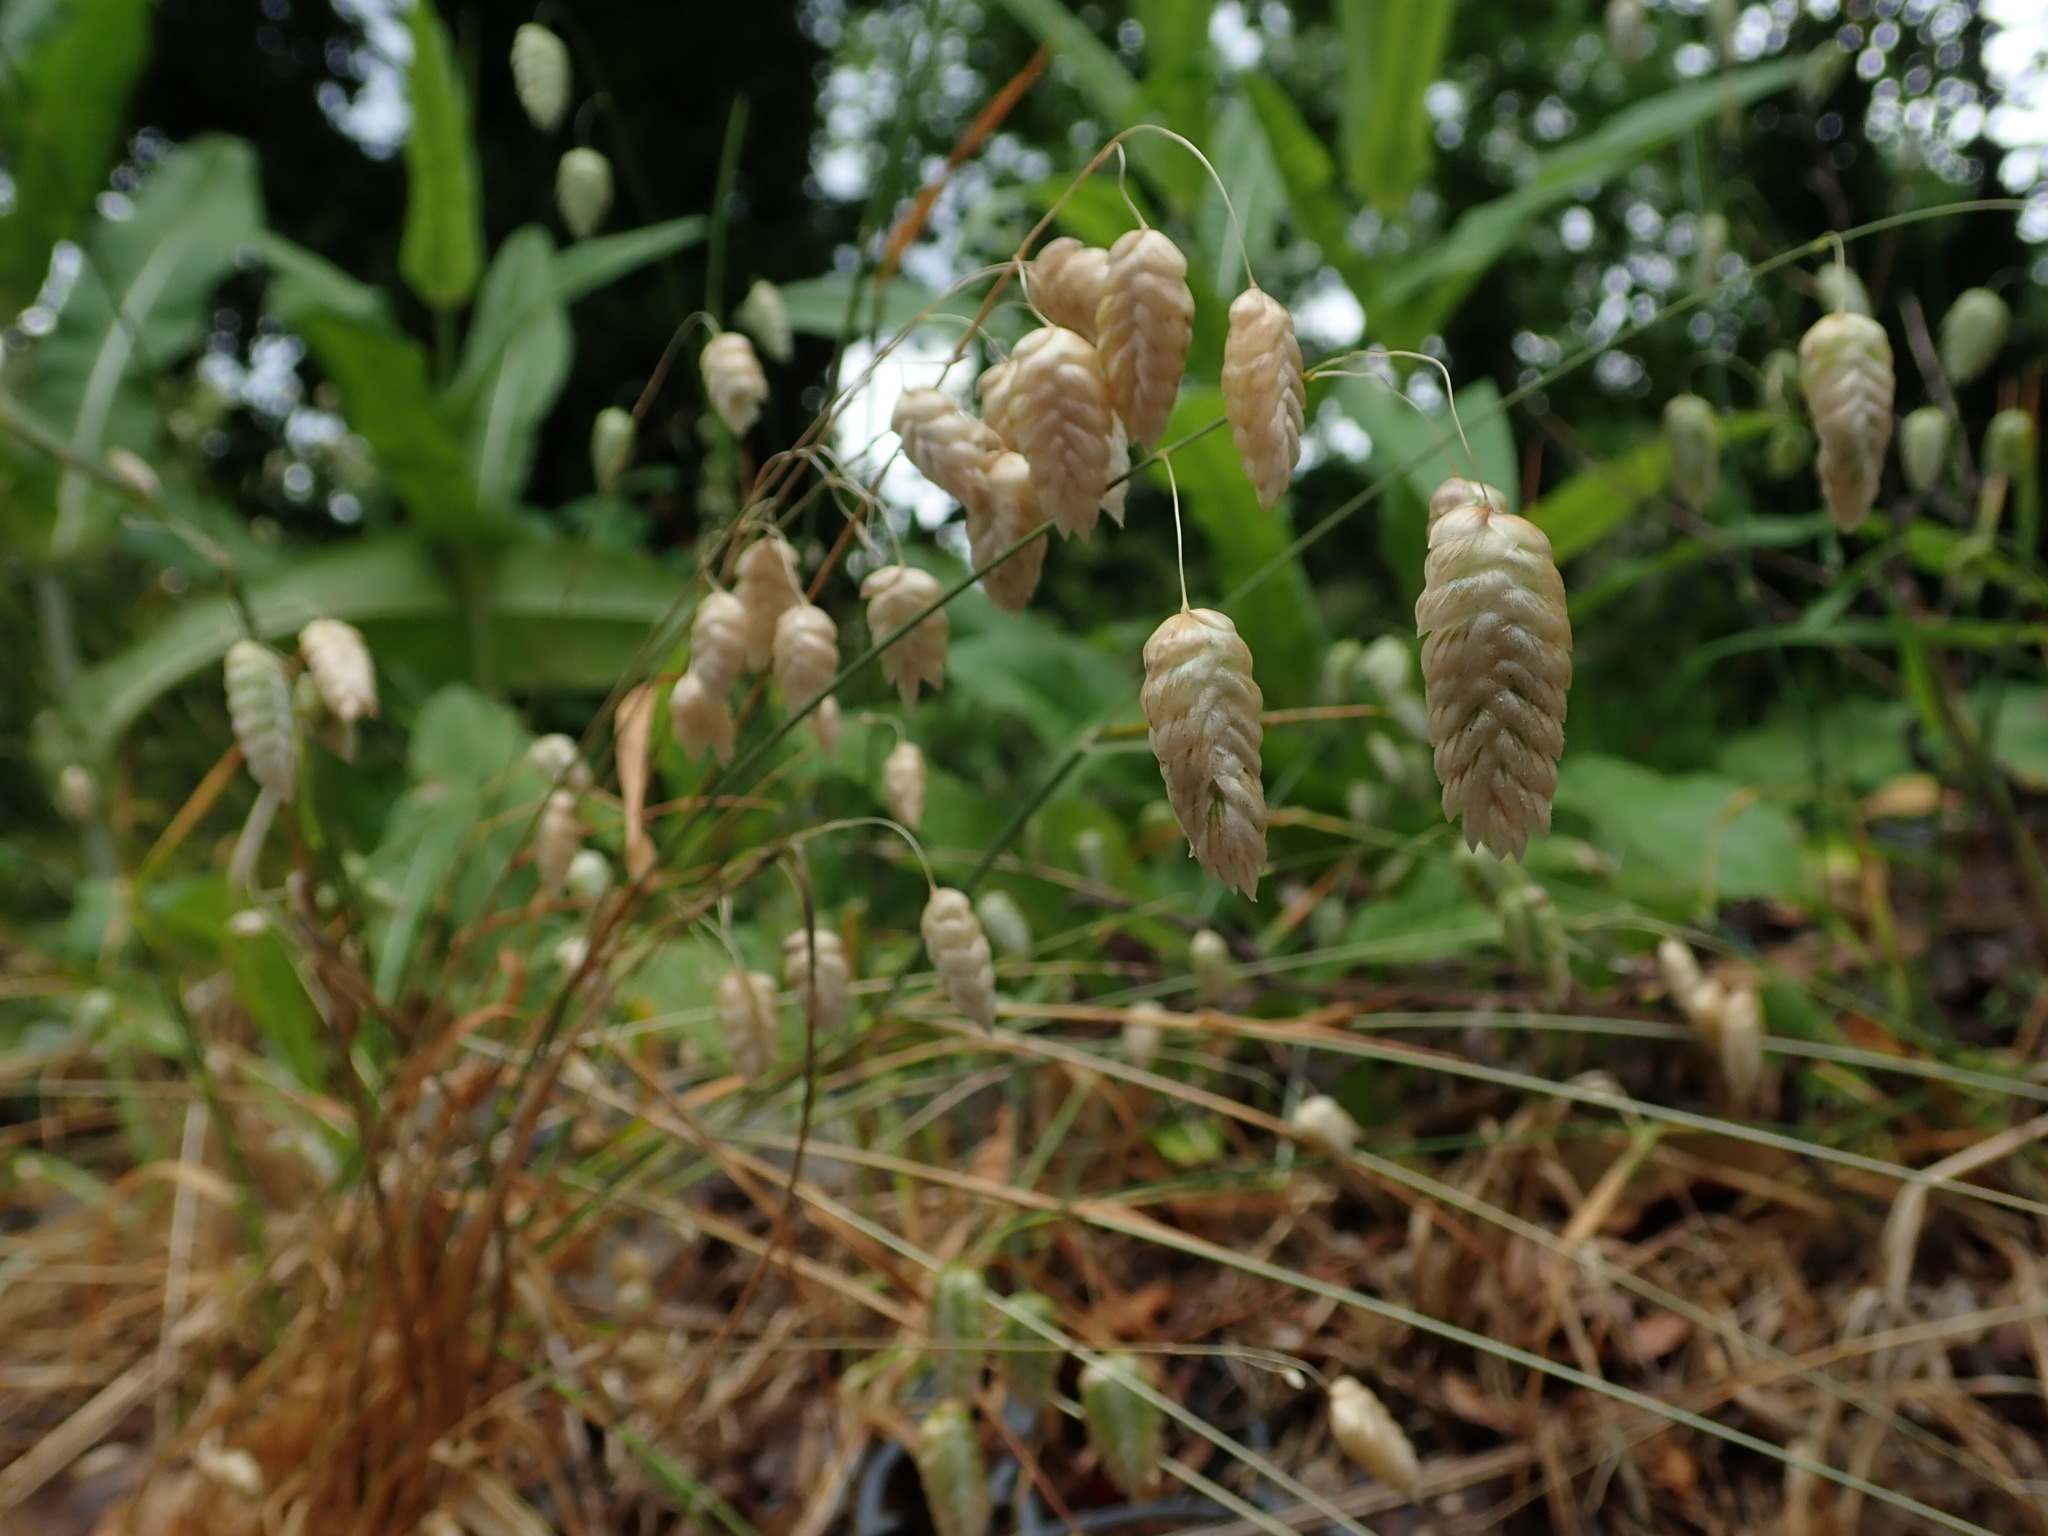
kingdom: Plantae
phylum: Tracheophyta
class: Liliopsida
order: Poales
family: Poaceae
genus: Briza
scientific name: Briza maxima
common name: Big quakinggrass
